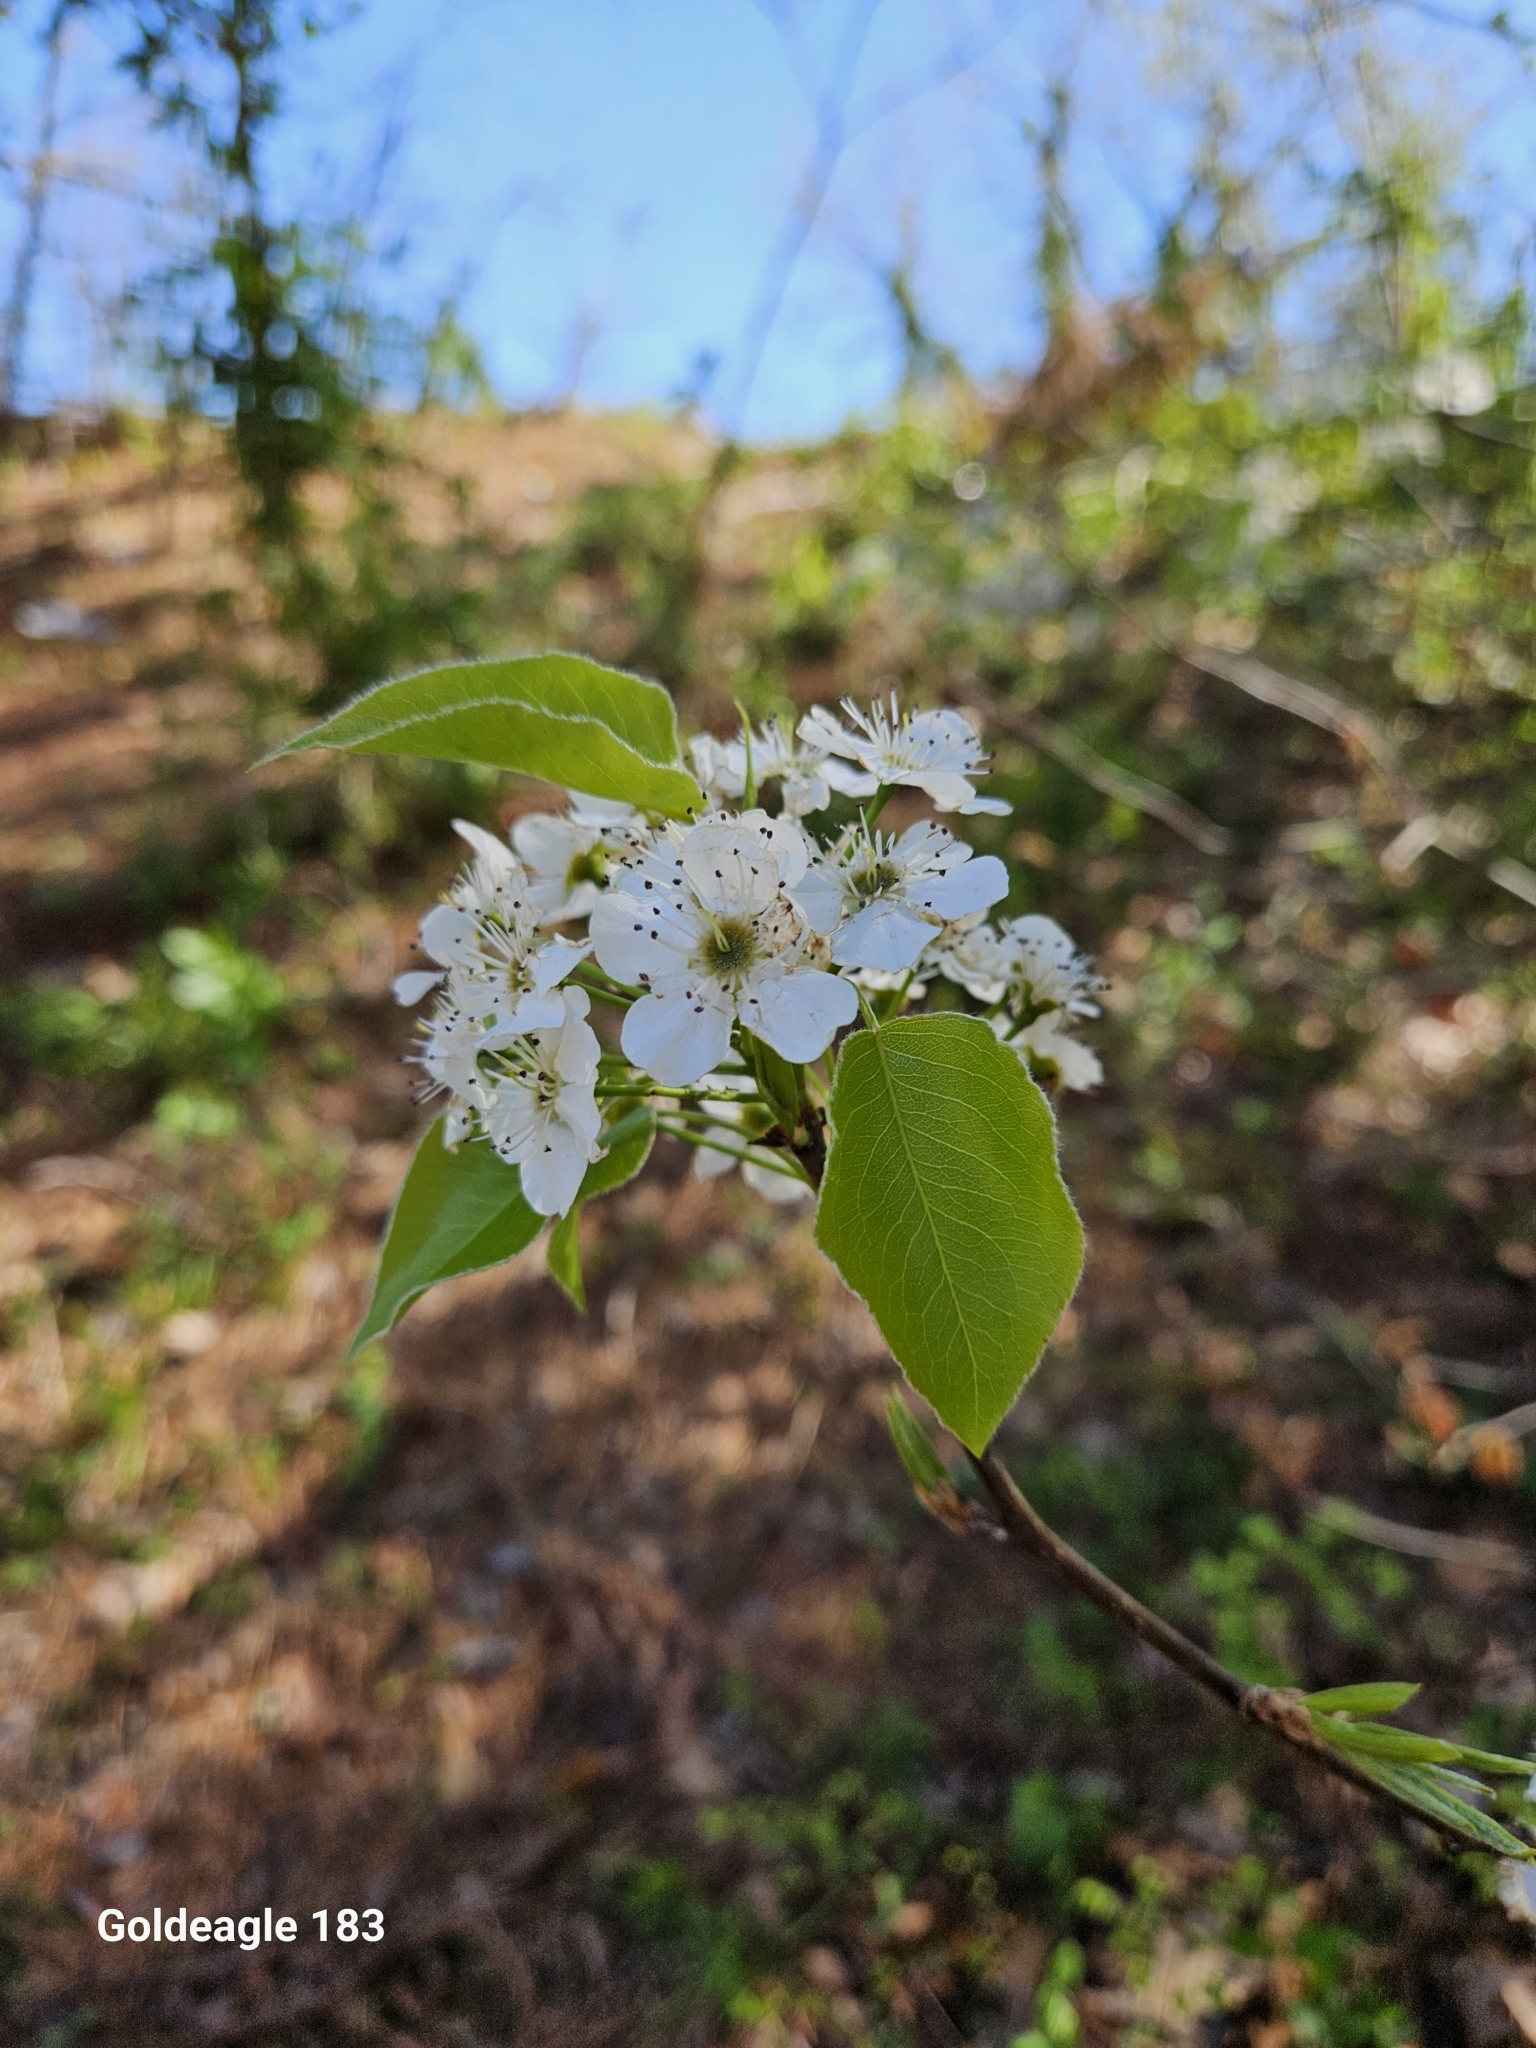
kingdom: Plantae
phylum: Tracheophyta
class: Magnoliopsida
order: Rosales
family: Rosaceae
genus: Pyrus
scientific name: Pyrus calleryana
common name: Callery pear
